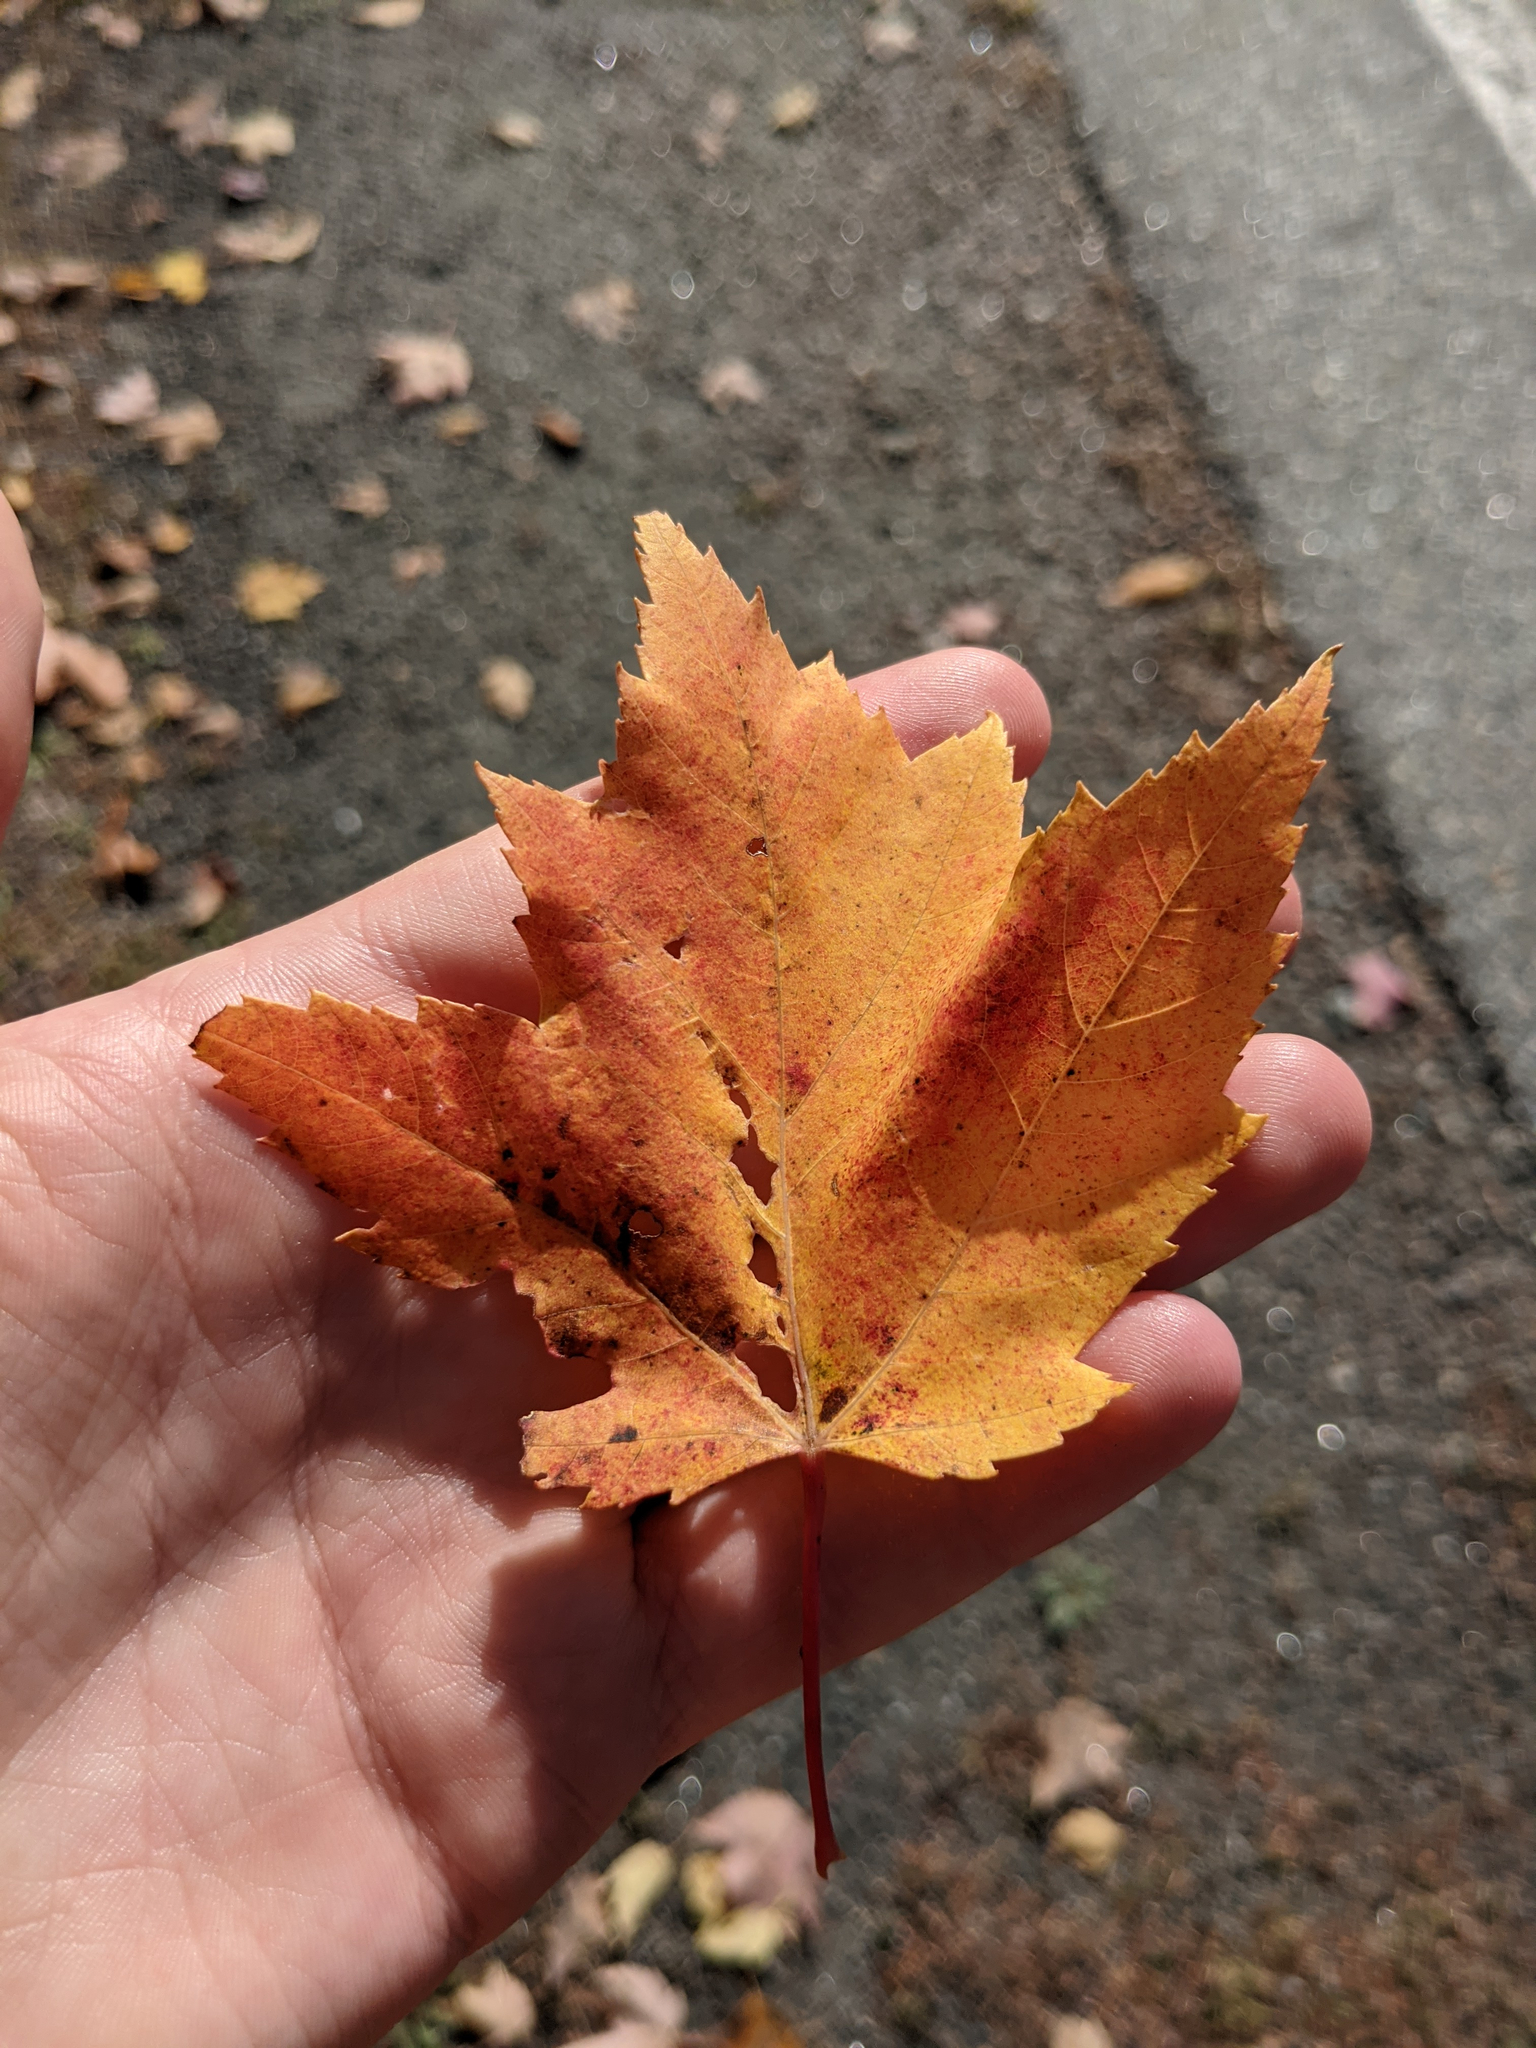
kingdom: Plantae
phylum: Tracheophyta
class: Magnoliopsida
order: Sapindales
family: Sapindaceae
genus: Acer
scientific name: Acer rubrum
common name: Red maple
